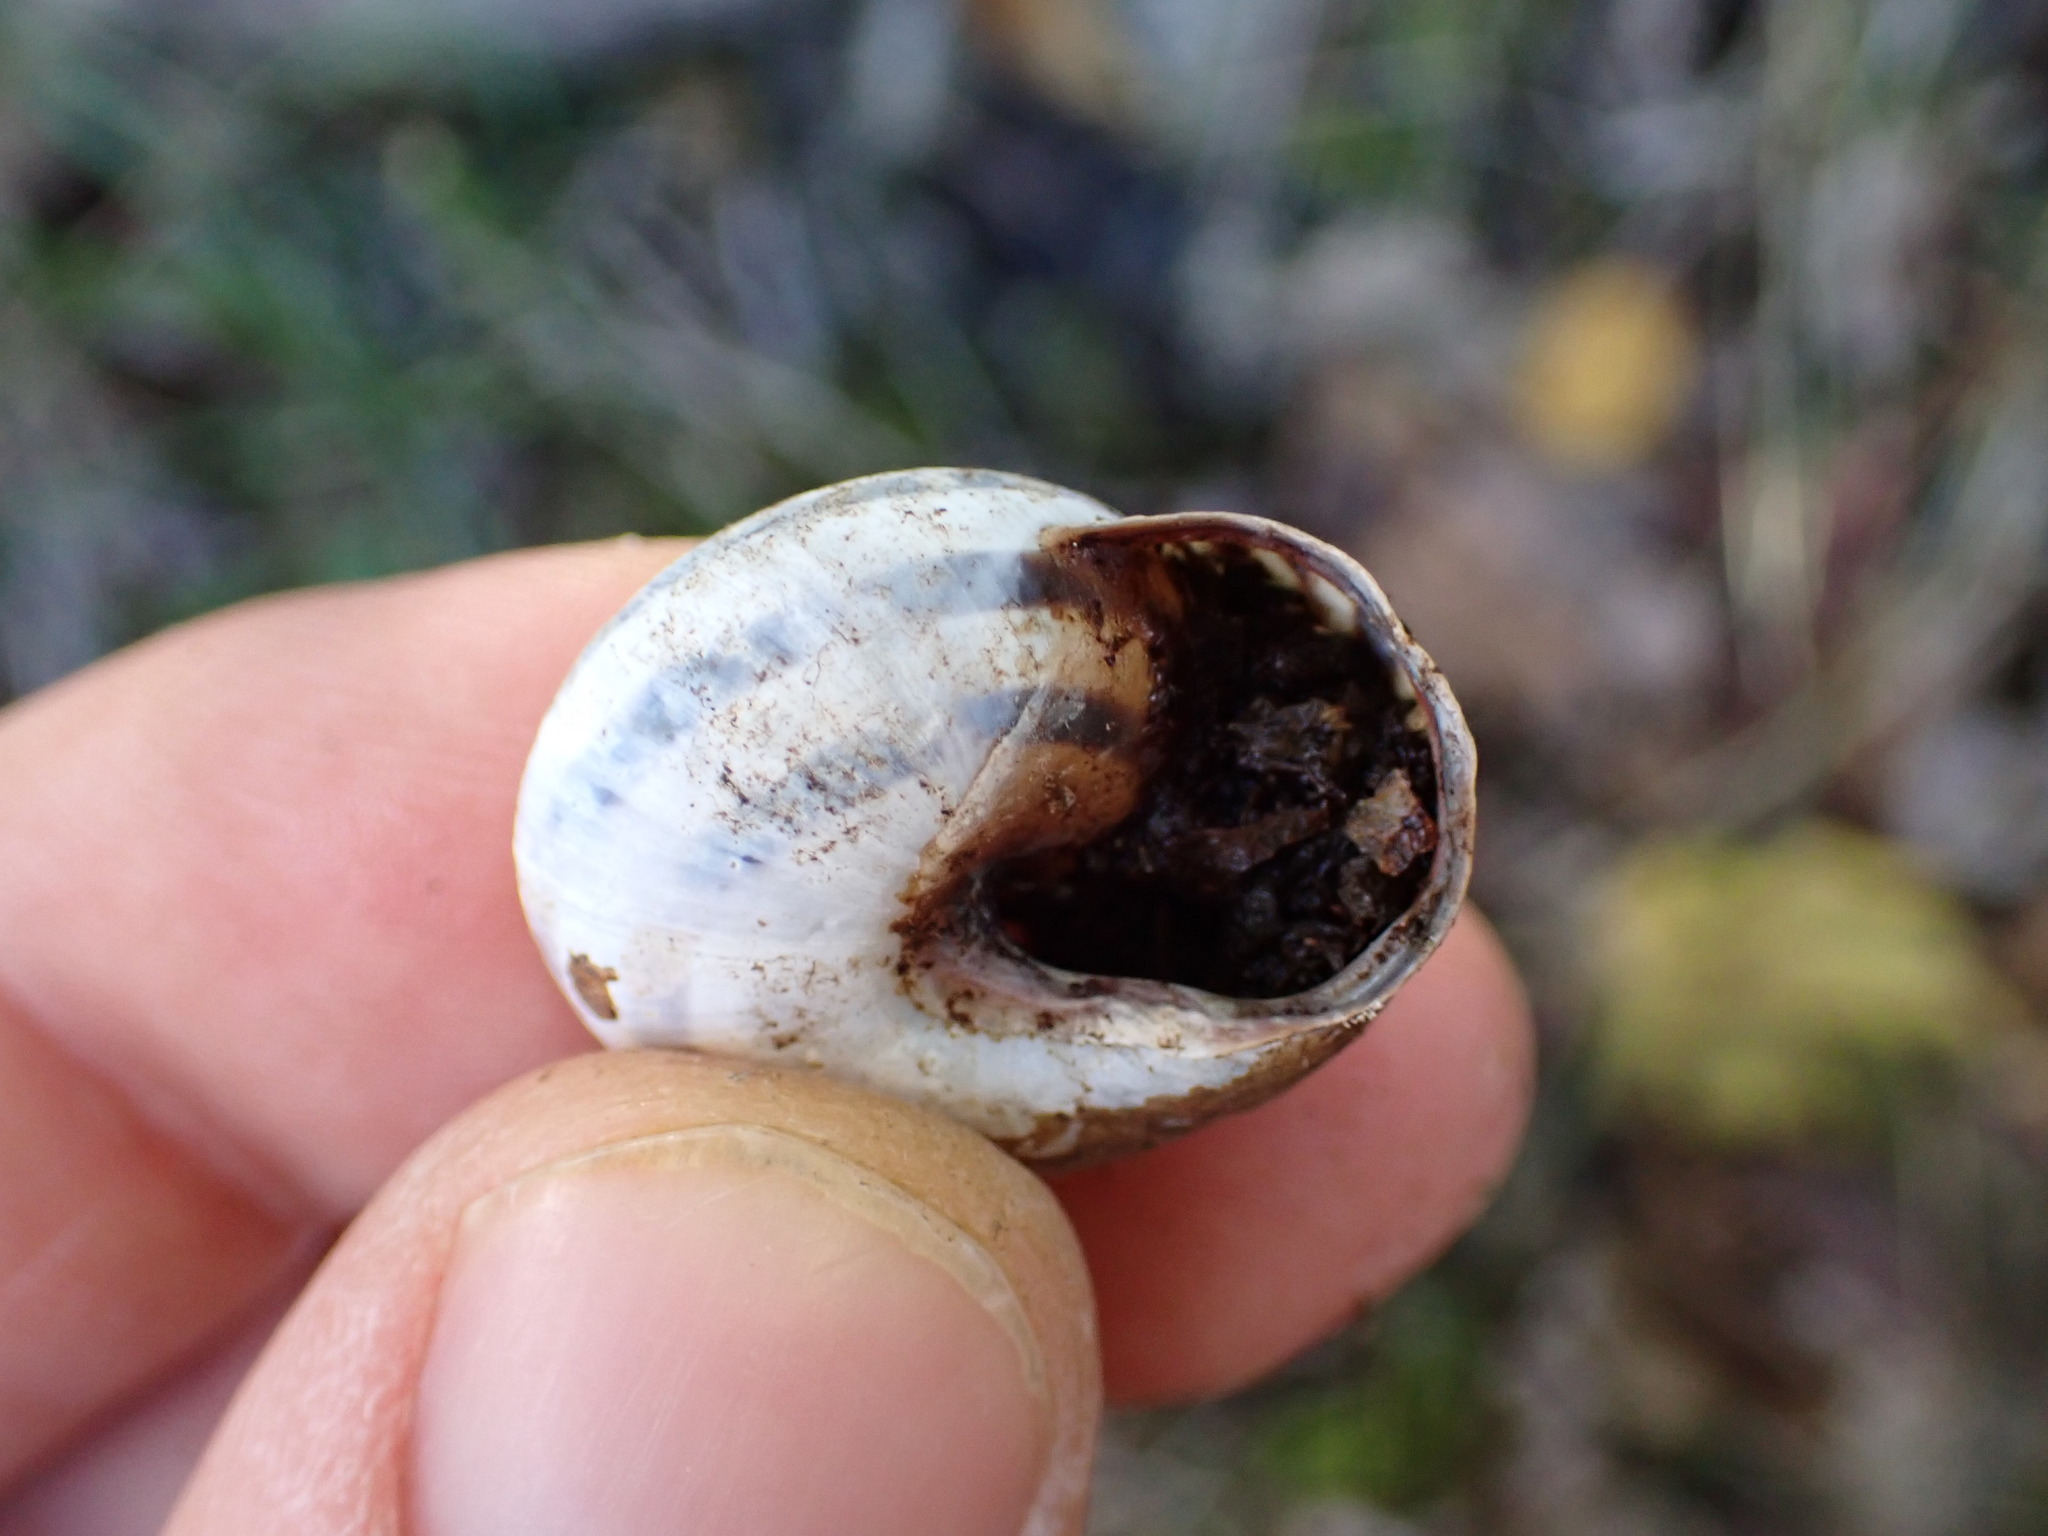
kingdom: Animalia
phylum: Mollusca
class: Gastropoda
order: Stylommatophora
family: Helicidae
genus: Cepaea
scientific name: Cepaea nemoralis
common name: Grovesnail
